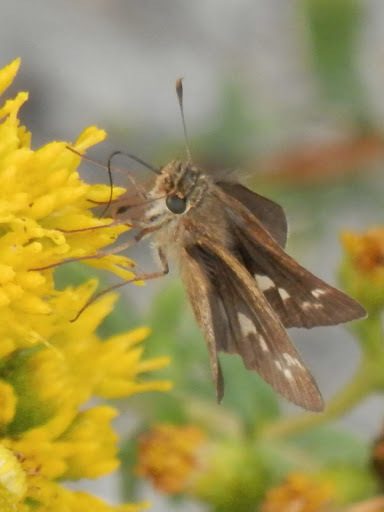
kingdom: Animalia
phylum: Arthropoda
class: Insecta
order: Lepidoptera
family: Hesperiidae
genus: Panoquina
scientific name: Panoquina errans
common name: Wandering skipper
